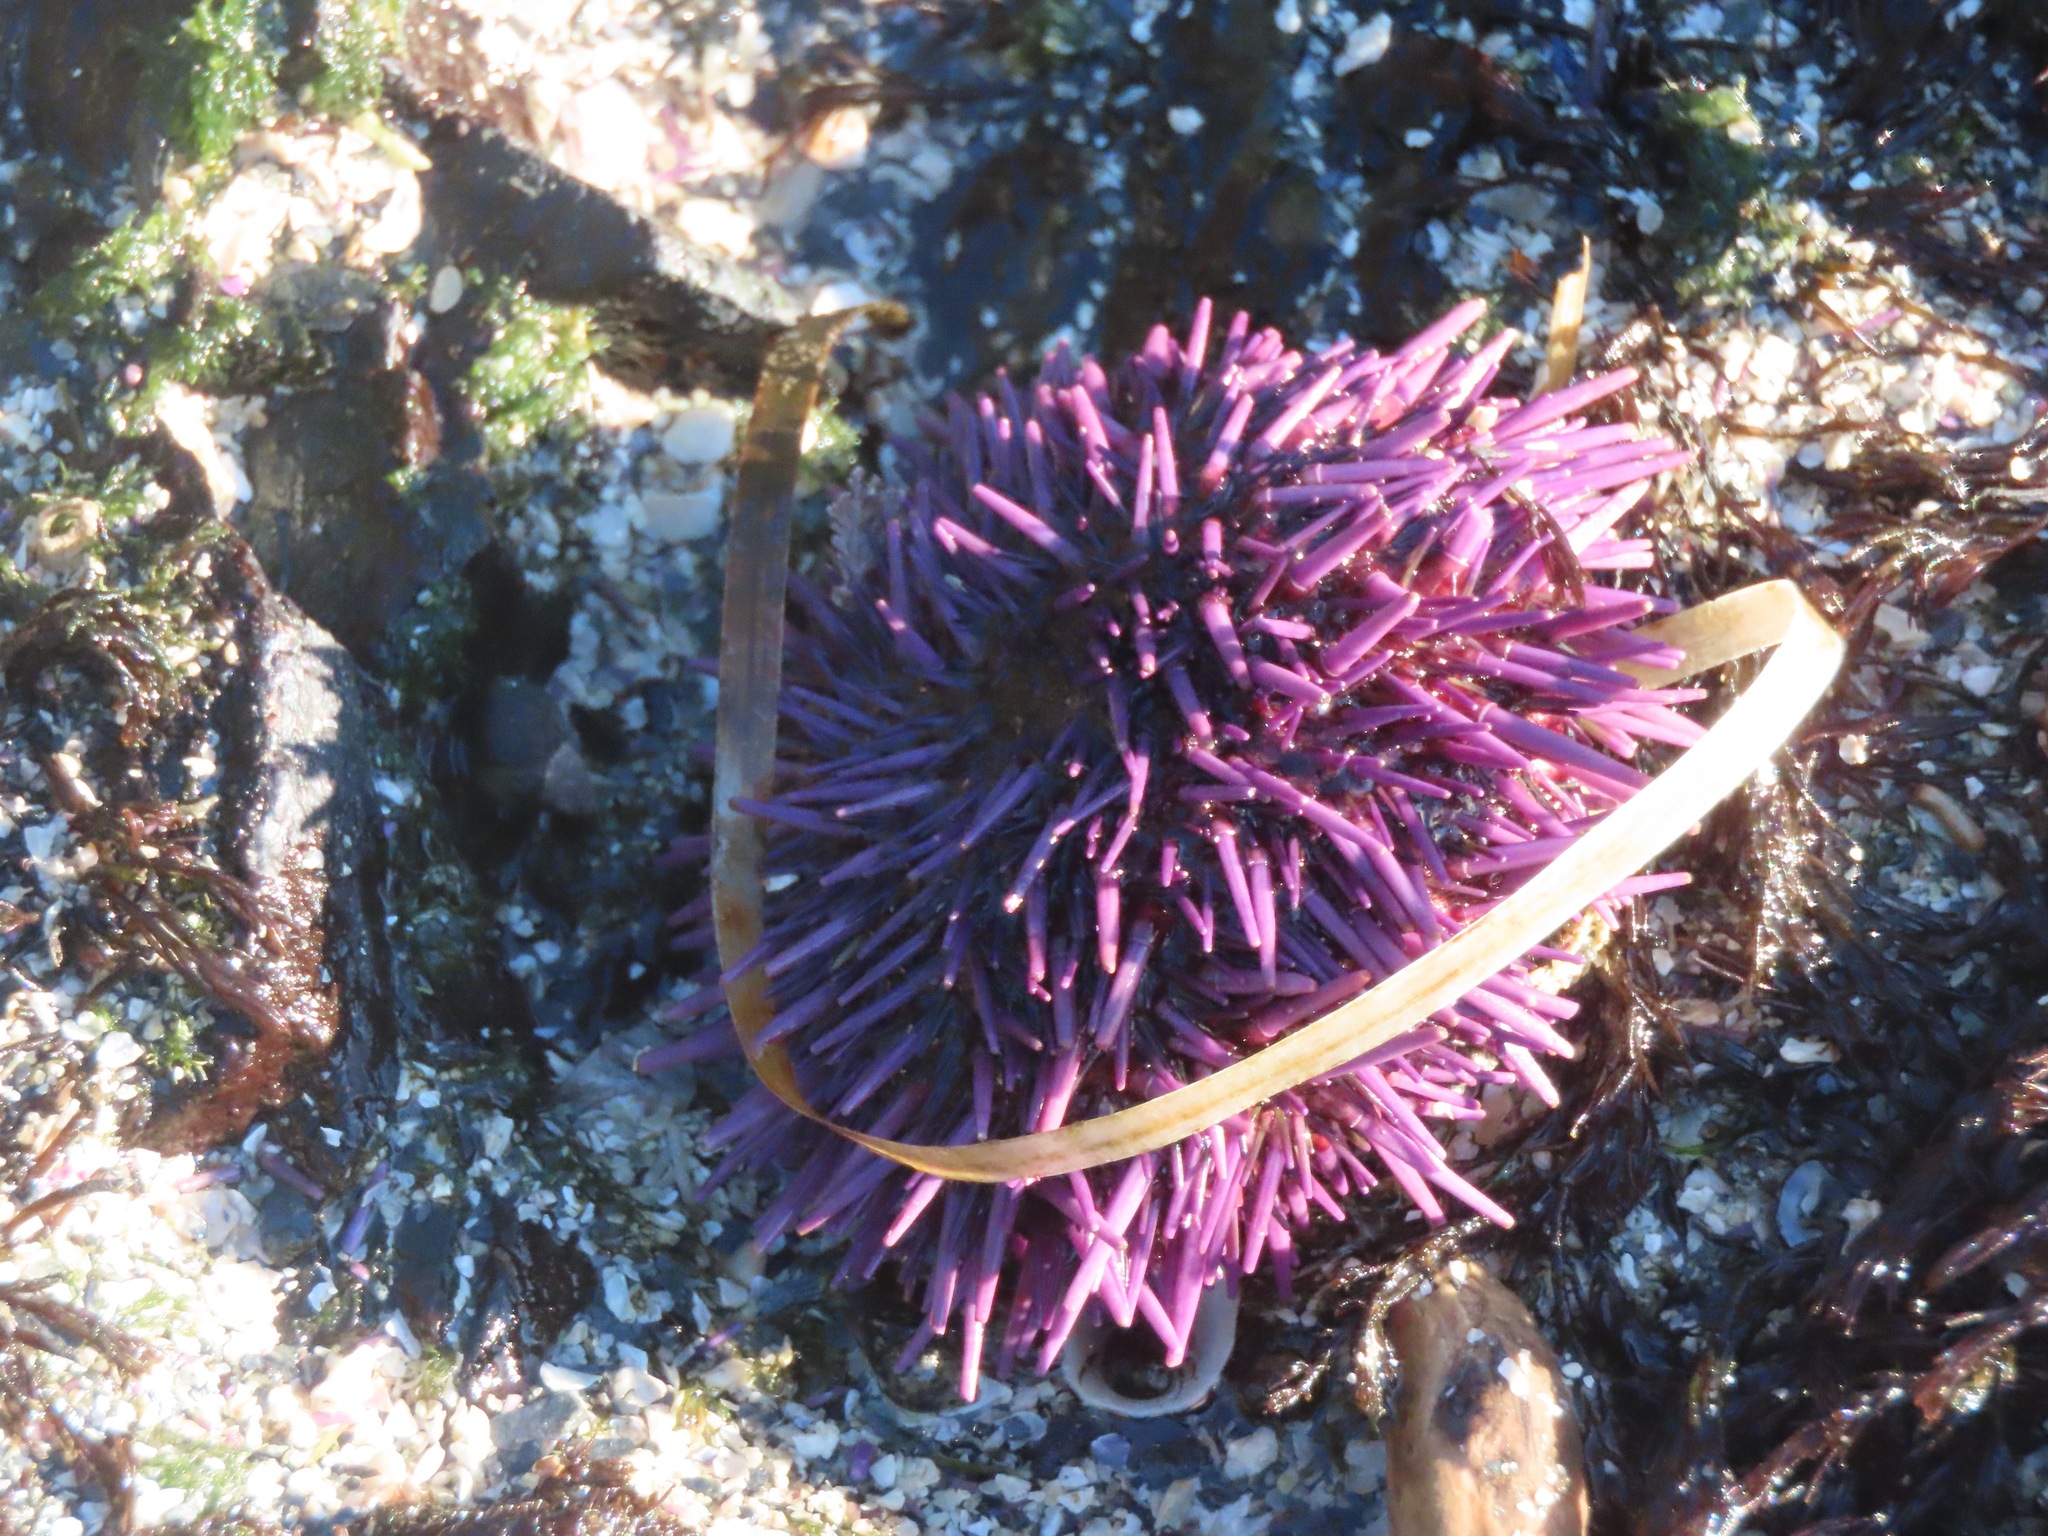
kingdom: Animalia
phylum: Echinodermata
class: Echinoidea
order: Camarodonta
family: Strongylocentrotidae
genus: Strongylocentrotus
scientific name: Strongylocentrotus purpuratus
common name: Purple sea urchin
